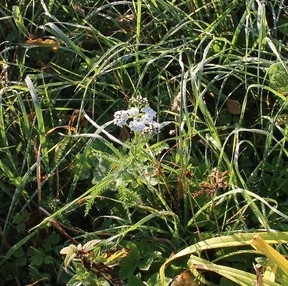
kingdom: Plantae
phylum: Tracheophyta
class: Magnoliopsida
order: Asterales
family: Asteraceae
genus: Achillea
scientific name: Achillea millefolium
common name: Yarrow
